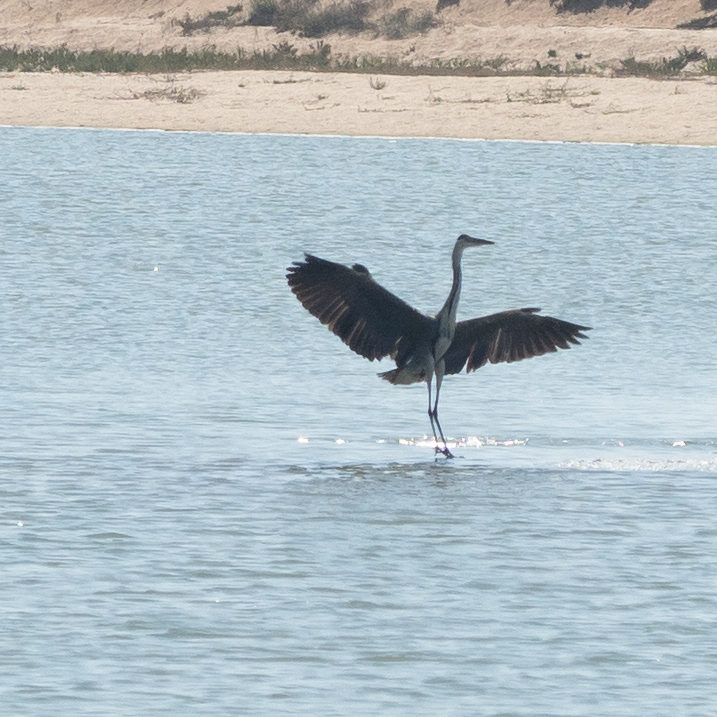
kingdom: Animalia
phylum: Chordata
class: Aves
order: Pelecaniformes
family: Ardeidae
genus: Ardea
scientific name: Ardea cinerea
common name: Grey heron
